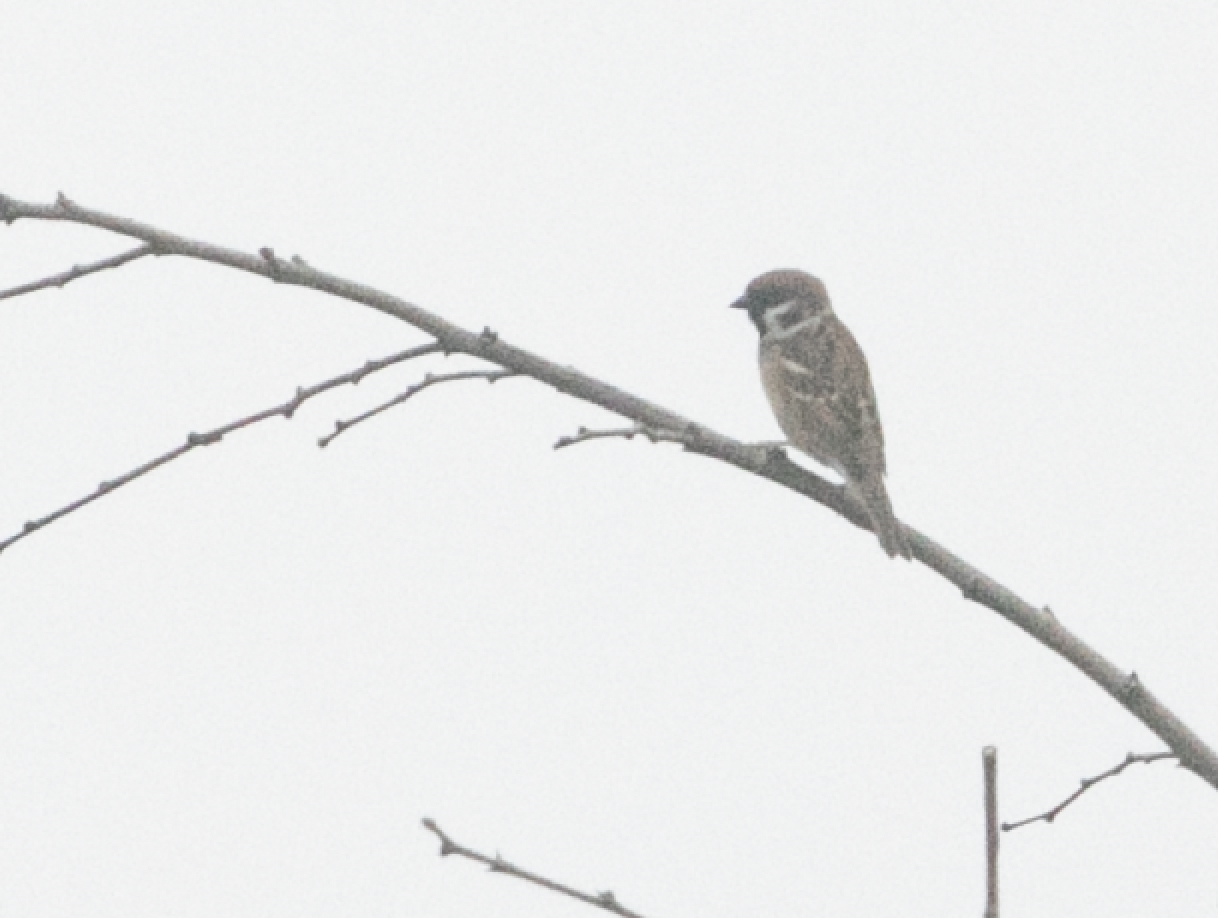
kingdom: Animalia
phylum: Chordata
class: Aves
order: Passeriformes
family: Passeridae
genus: Passer
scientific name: Passer montanus
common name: Eurasian tree sparrow
